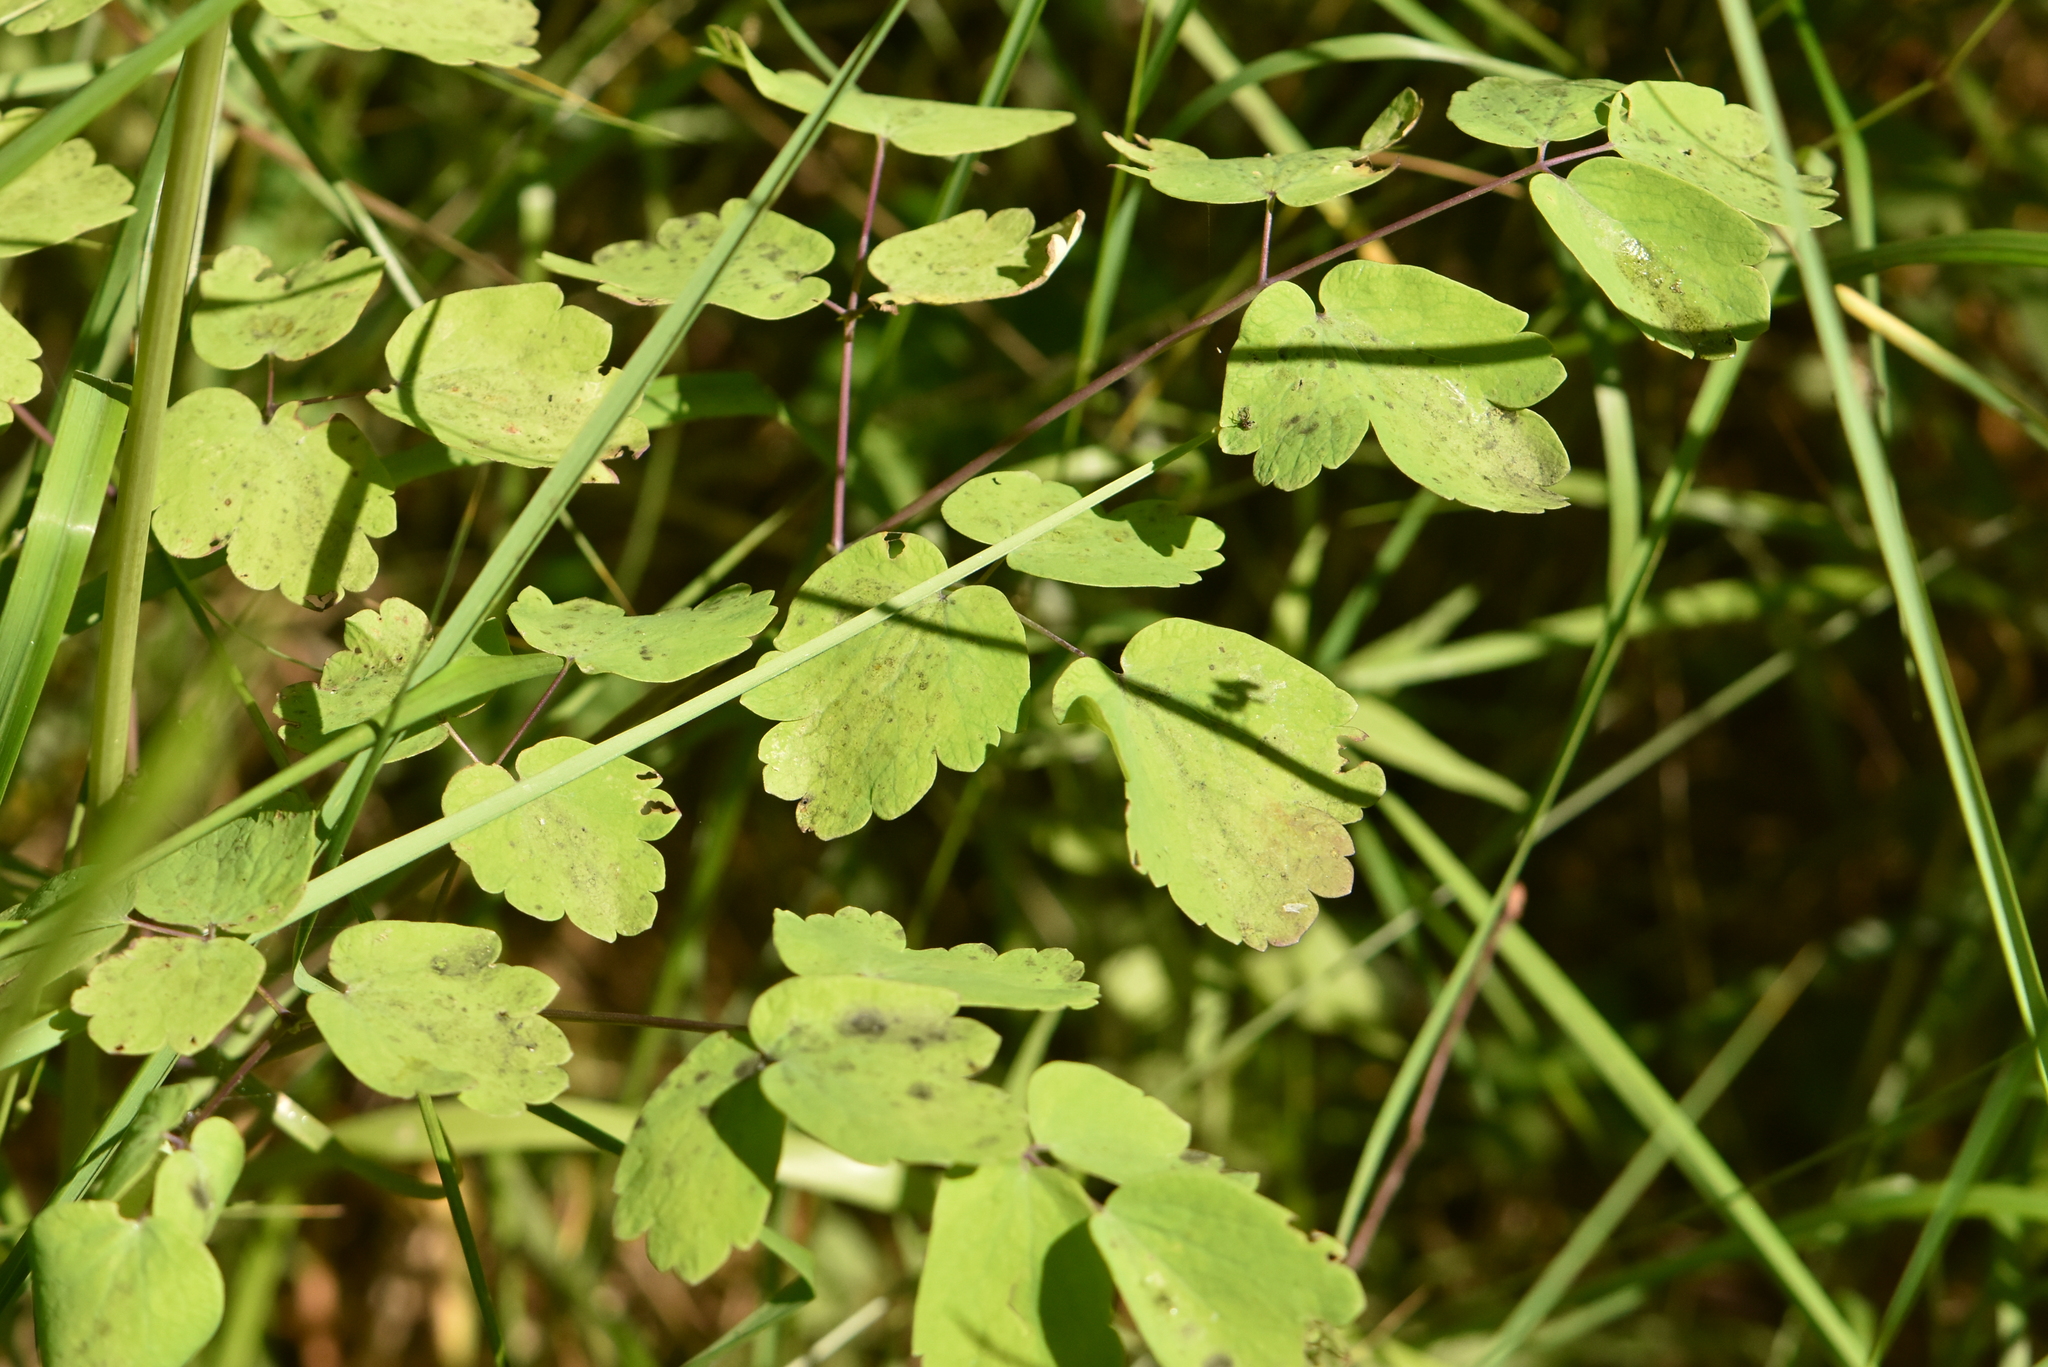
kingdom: Plantae
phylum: Tracheophyta
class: Magnoliopsida
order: Ranunculales
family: Ranunculaceae
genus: Thalictrum
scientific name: Thalictrum aquilegiifolium
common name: French meadow-rue
